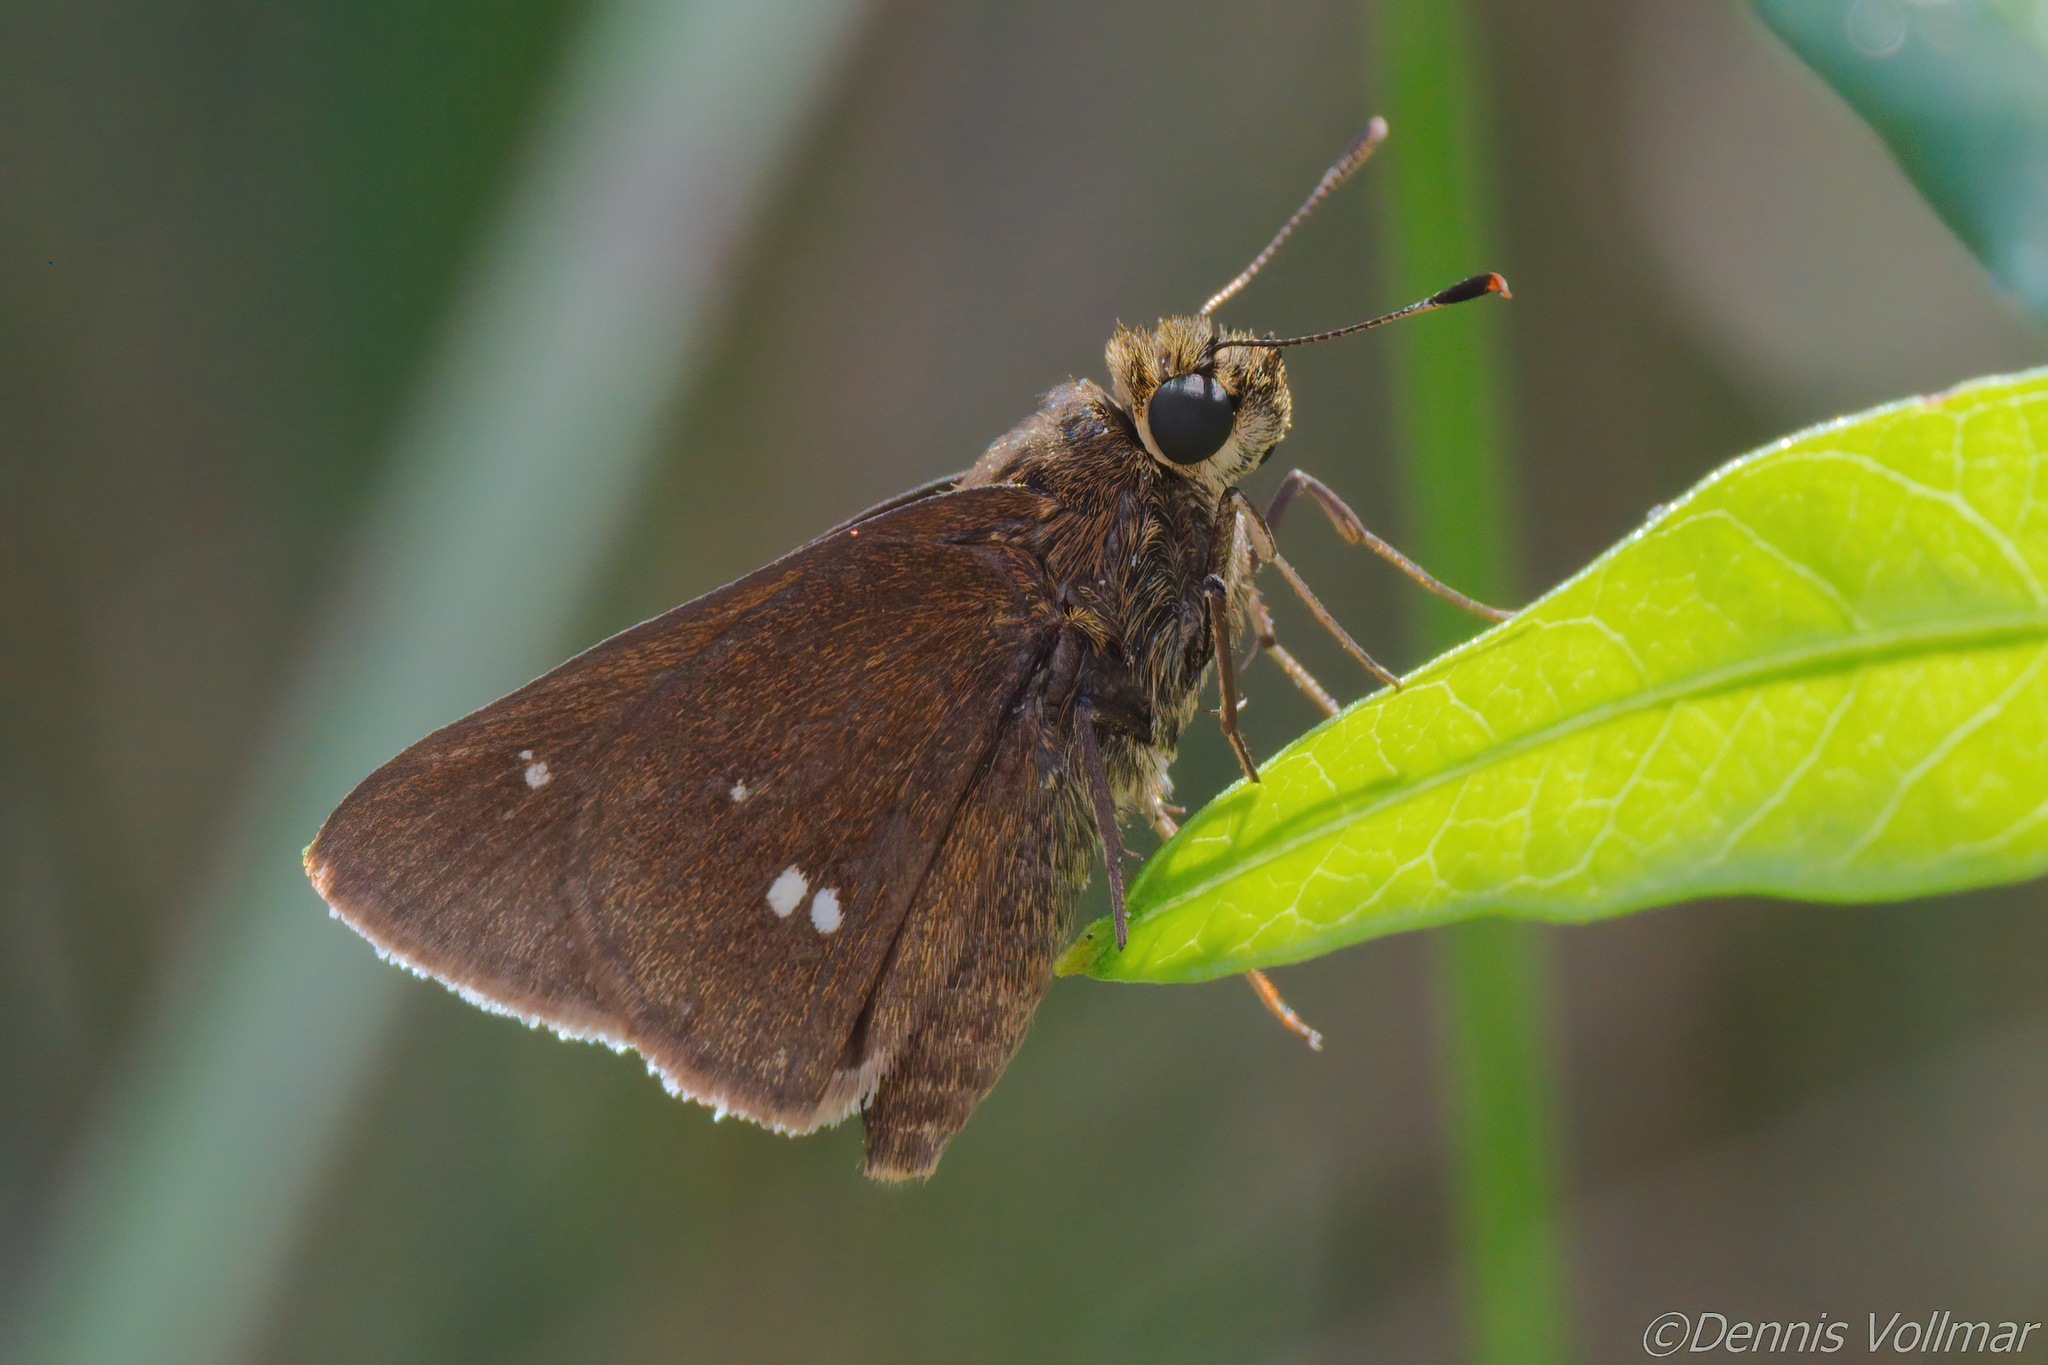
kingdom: Animalia
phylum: Arthropoda
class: Insecta
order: Lepidoptera
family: Hesperiidae
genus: Oligoria
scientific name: Oligoria maculata
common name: Twin-spot skipper
